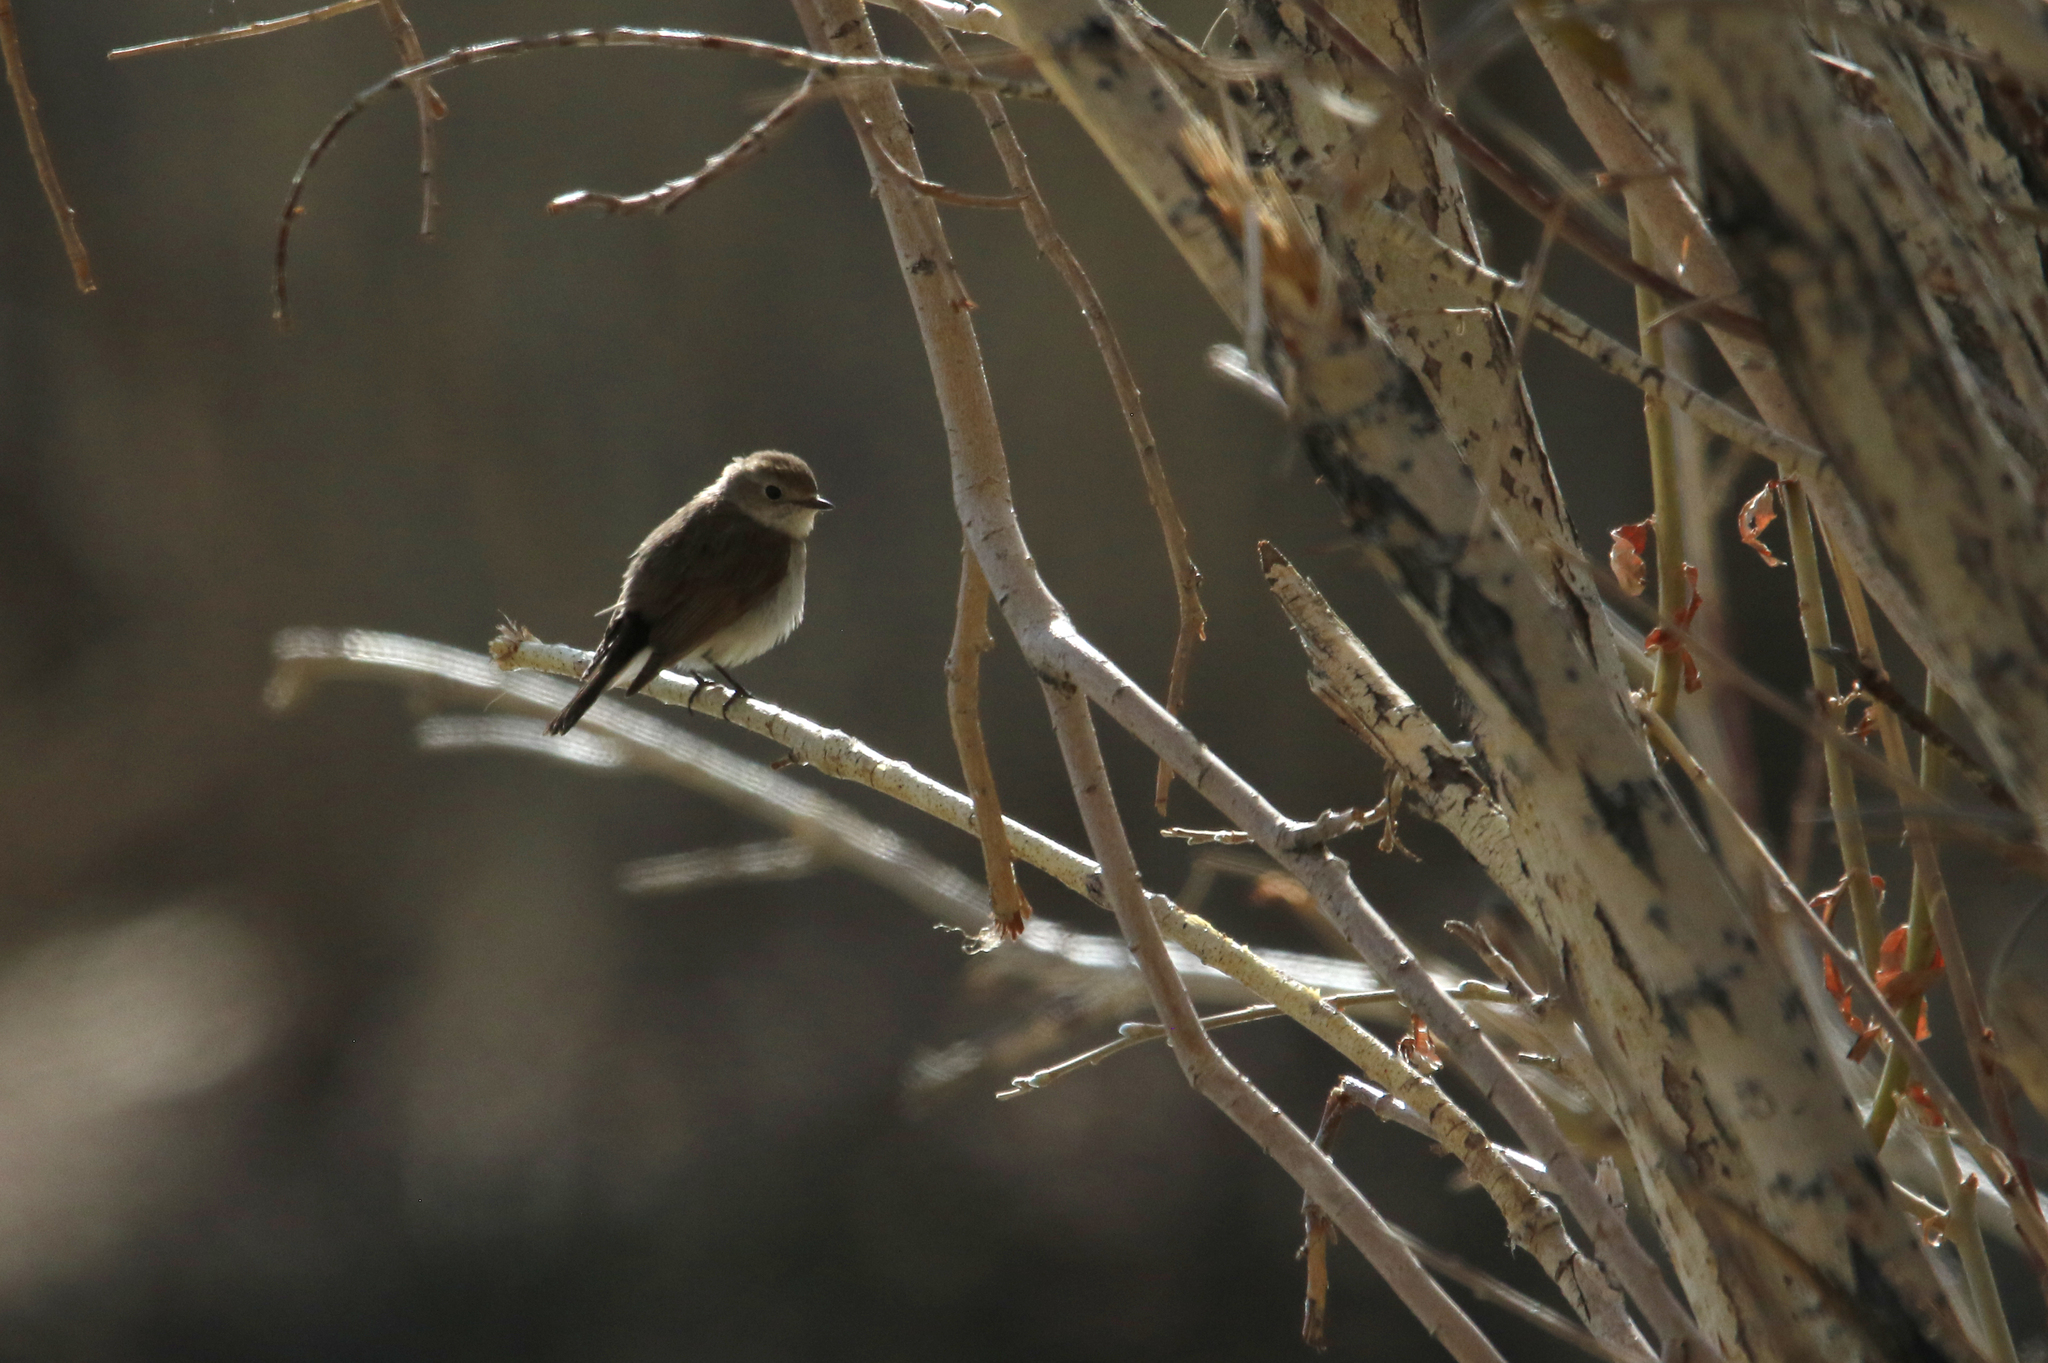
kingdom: Animalia
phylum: Chordata
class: Aves
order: Passeriformes
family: Muscicapidae
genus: Ficedula
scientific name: Ficedula albicilla
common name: Taiga flycatcher
